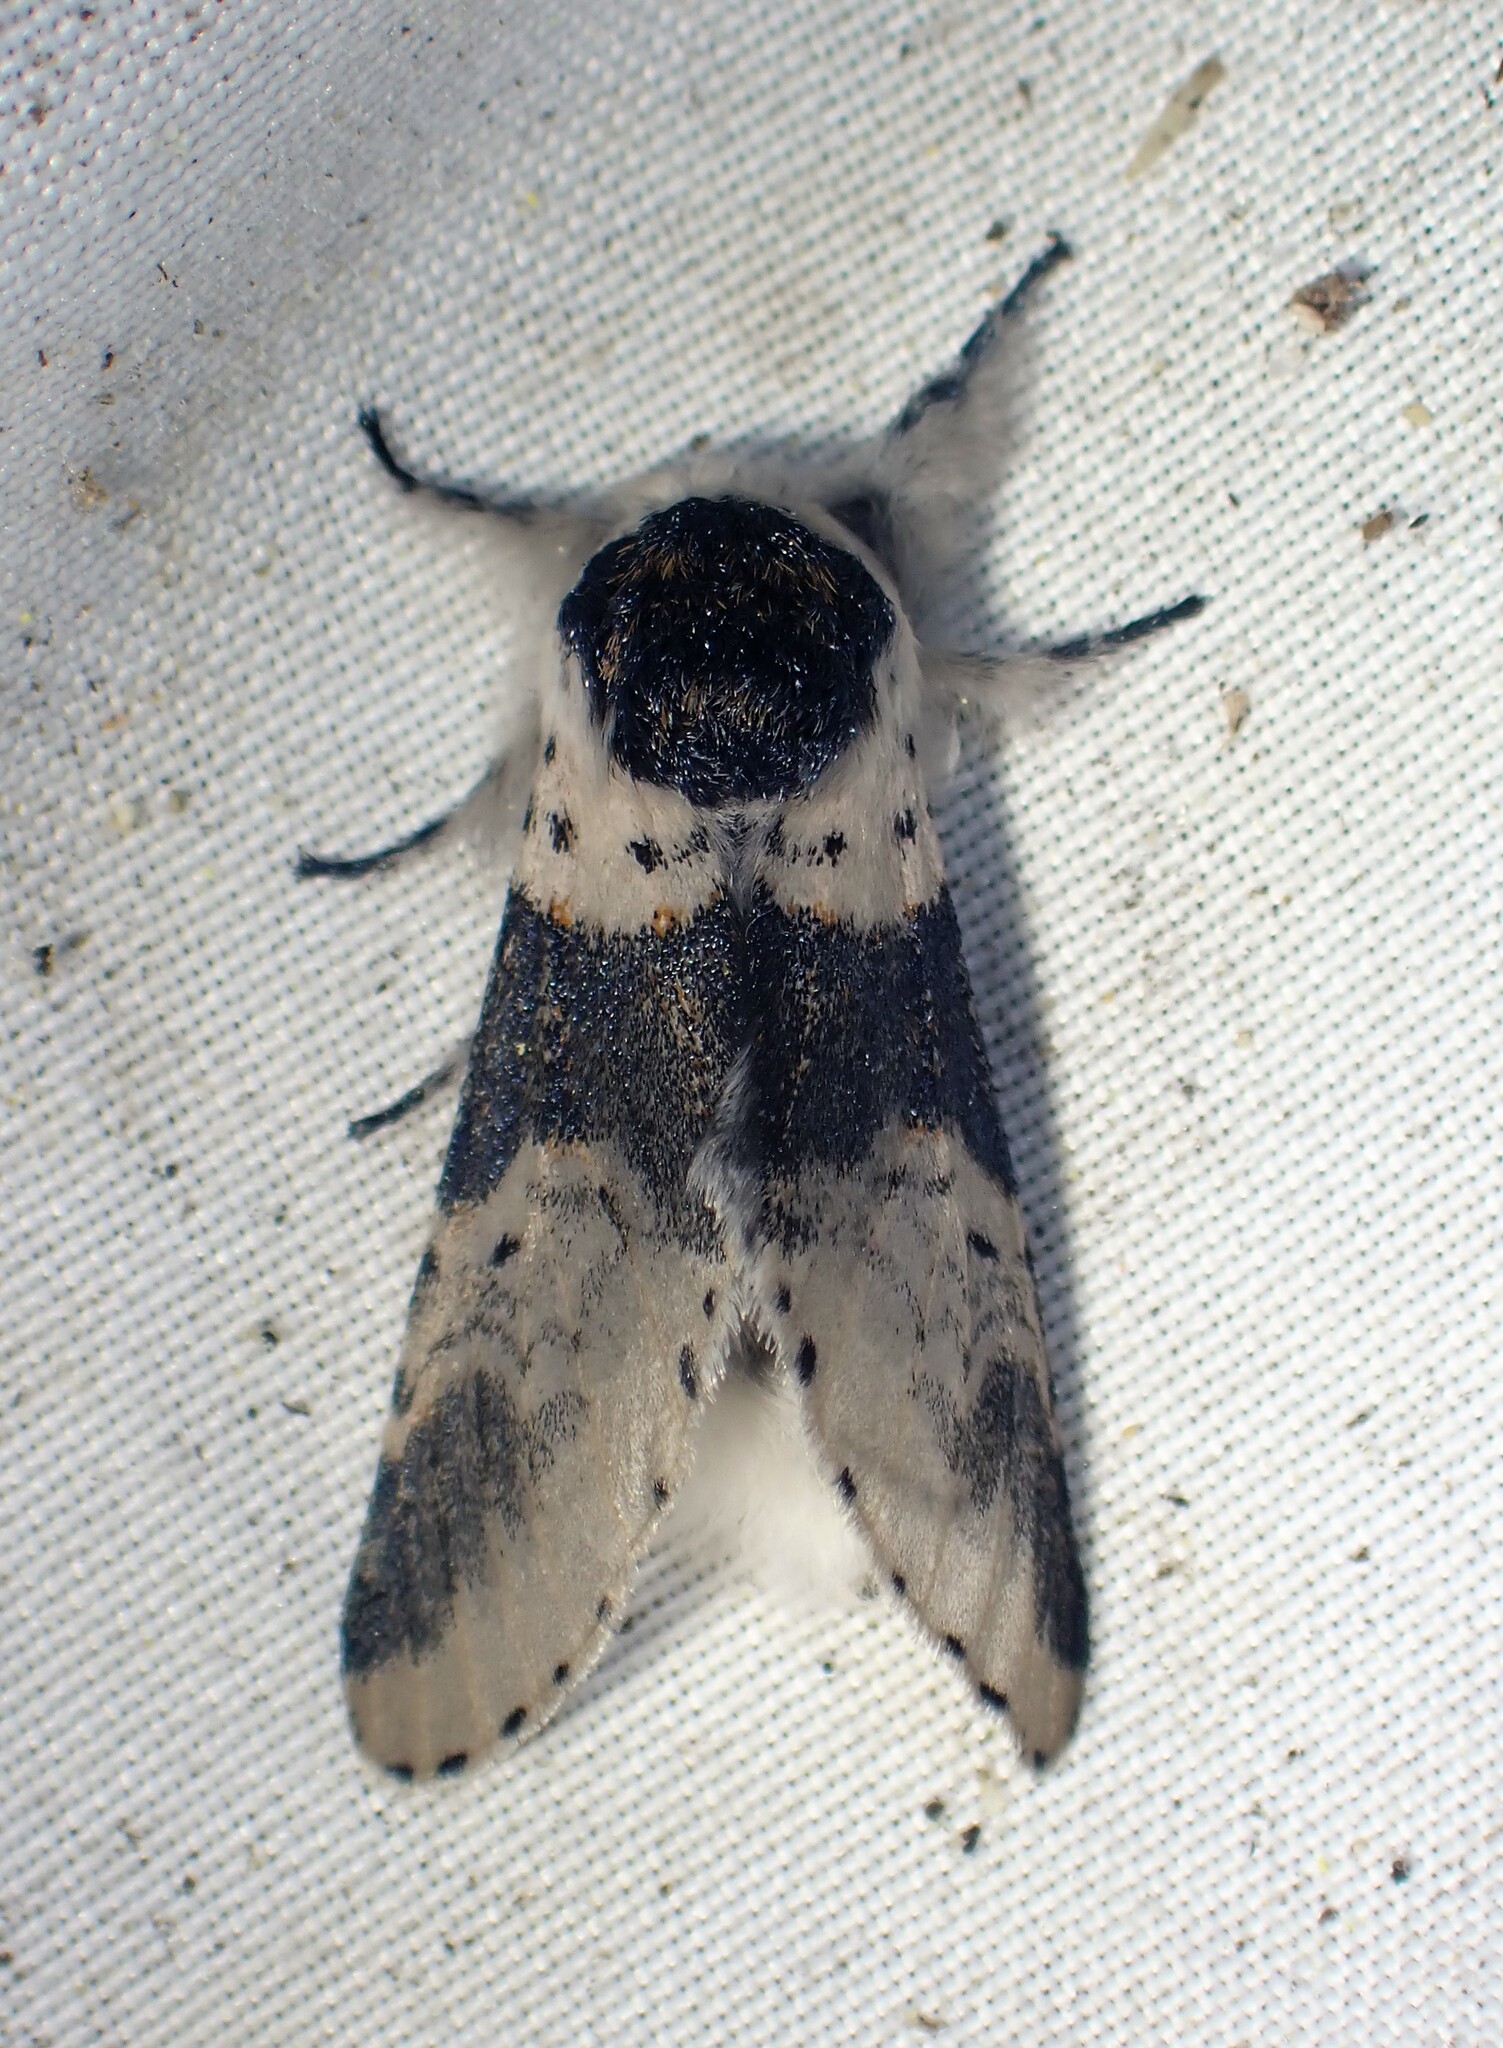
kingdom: Animalia
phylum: Arthropoda
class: Insecta
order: Lepidoptera
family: Notodontidae
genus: Furcula
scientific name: Furcula modesta
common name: Modest furcula moth
